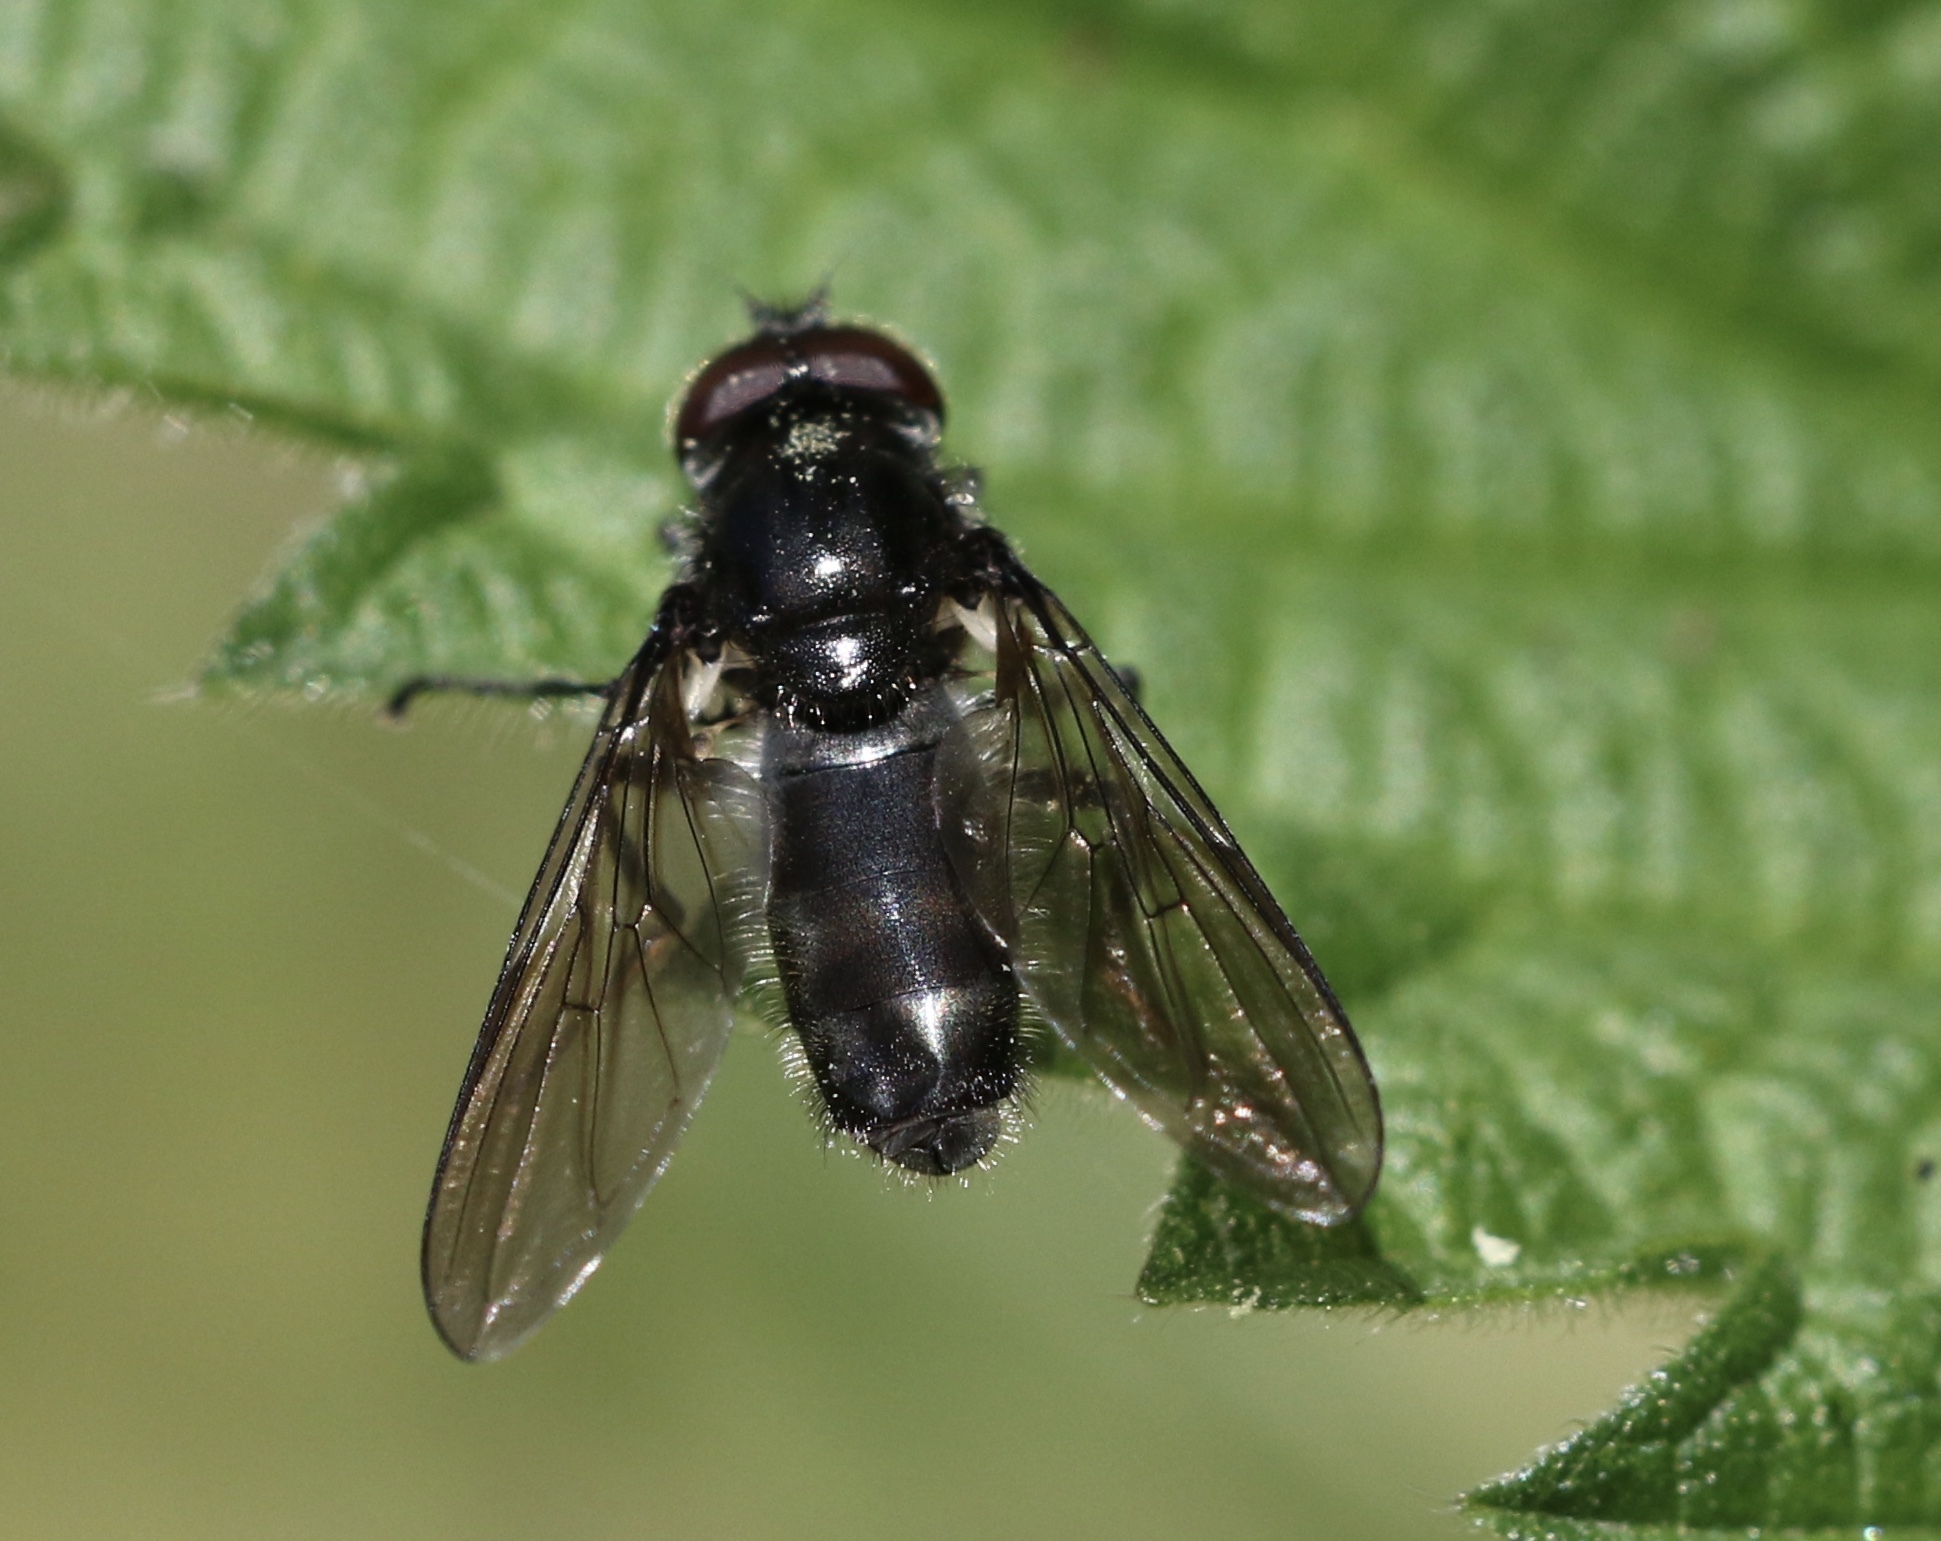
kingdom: Animalia
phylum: Arthropoda
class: Insecta
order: Diptera
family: Syrphidae
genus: Cheilosia
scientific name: Cheilosia variabilis
